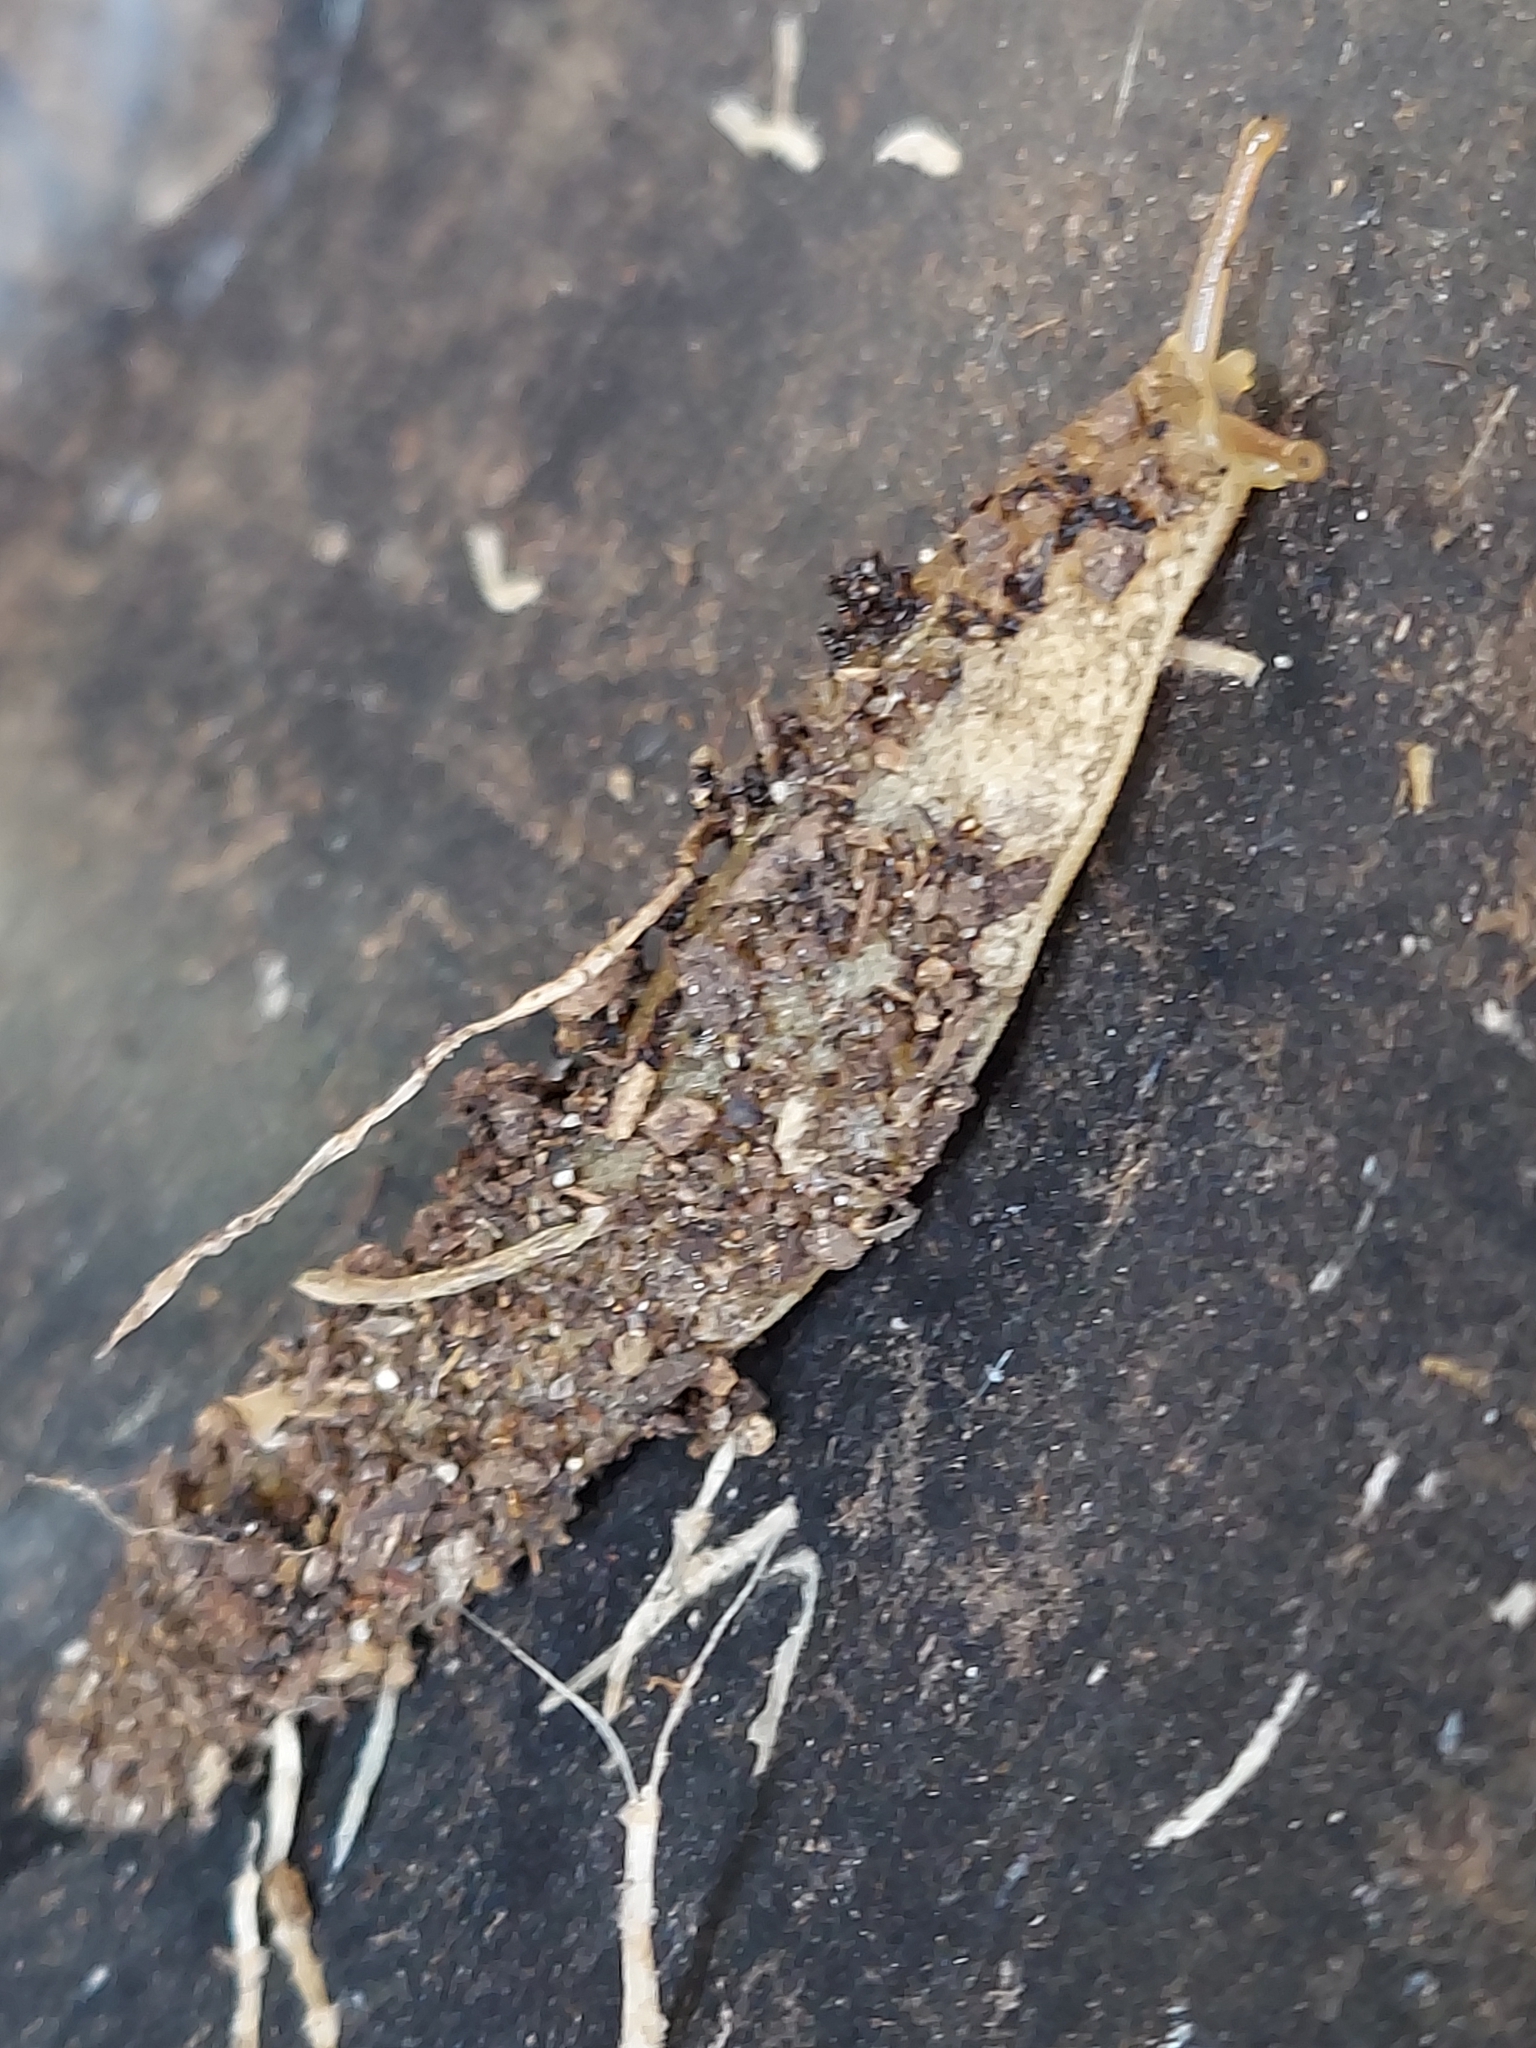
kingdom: Animalia
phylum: Mollusca
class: Gastropoda
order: Systellommatophora
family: Veronicellidae
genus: Veronicella
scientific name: Veronicella cubensis
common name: Two striped slug
